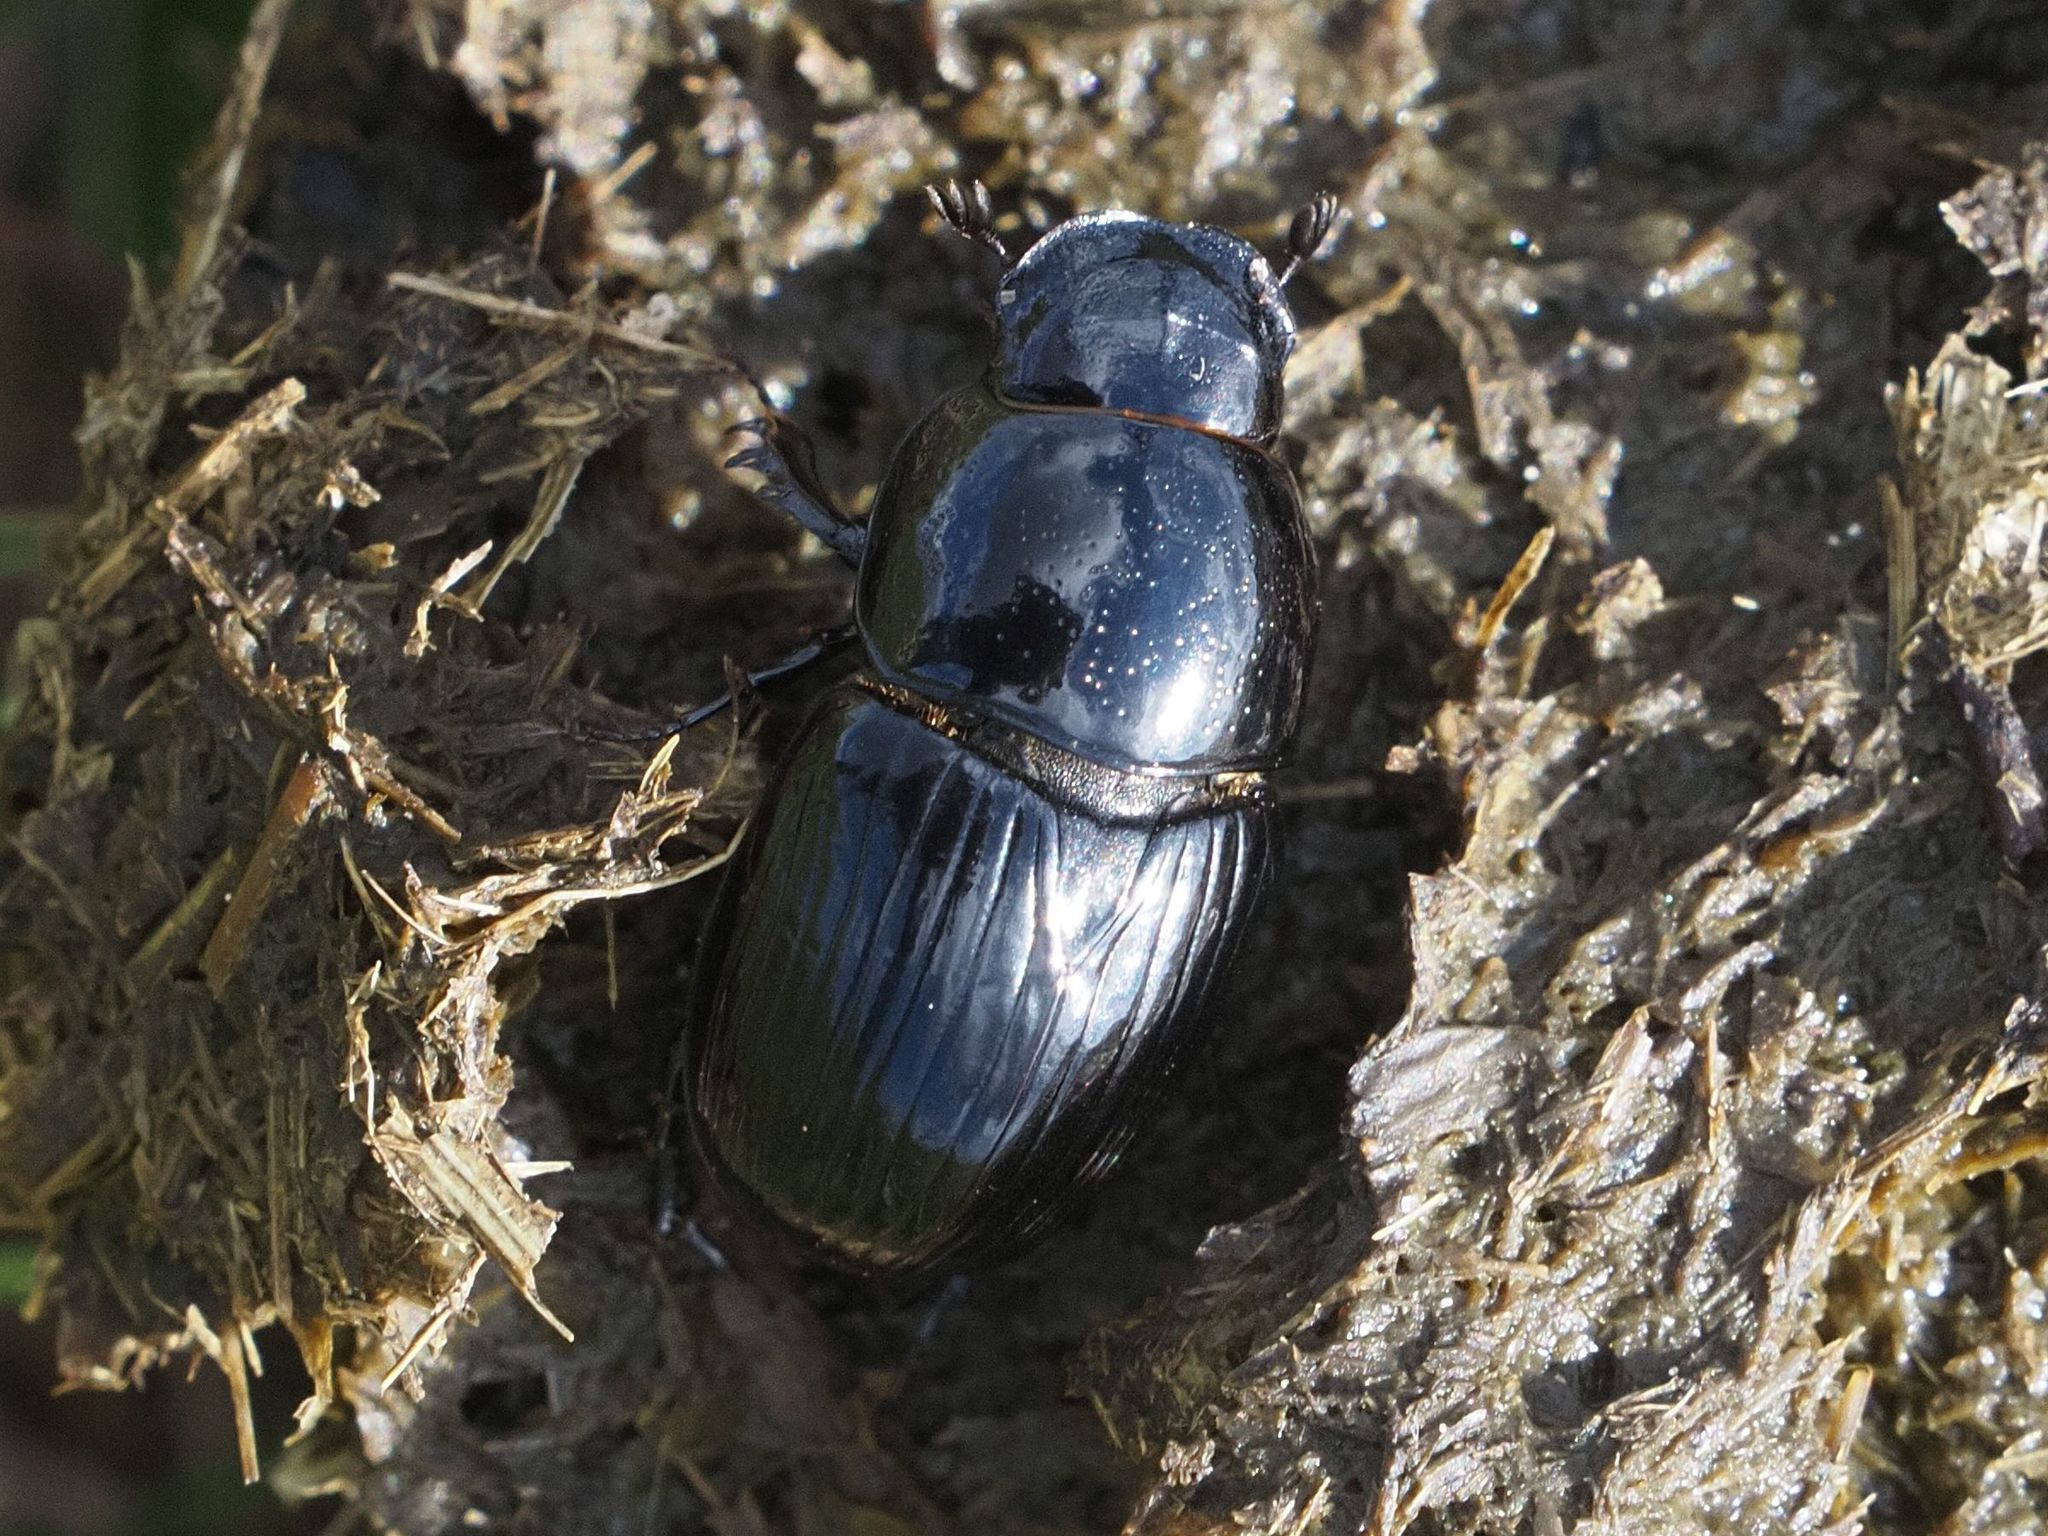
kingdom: Animalia
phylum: Arthropoda
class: Insecta
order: Coleoptera
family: Scarabaeidae
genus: Teuchestes
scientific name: Teuchestes fossor
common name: Digger small dung beetle
